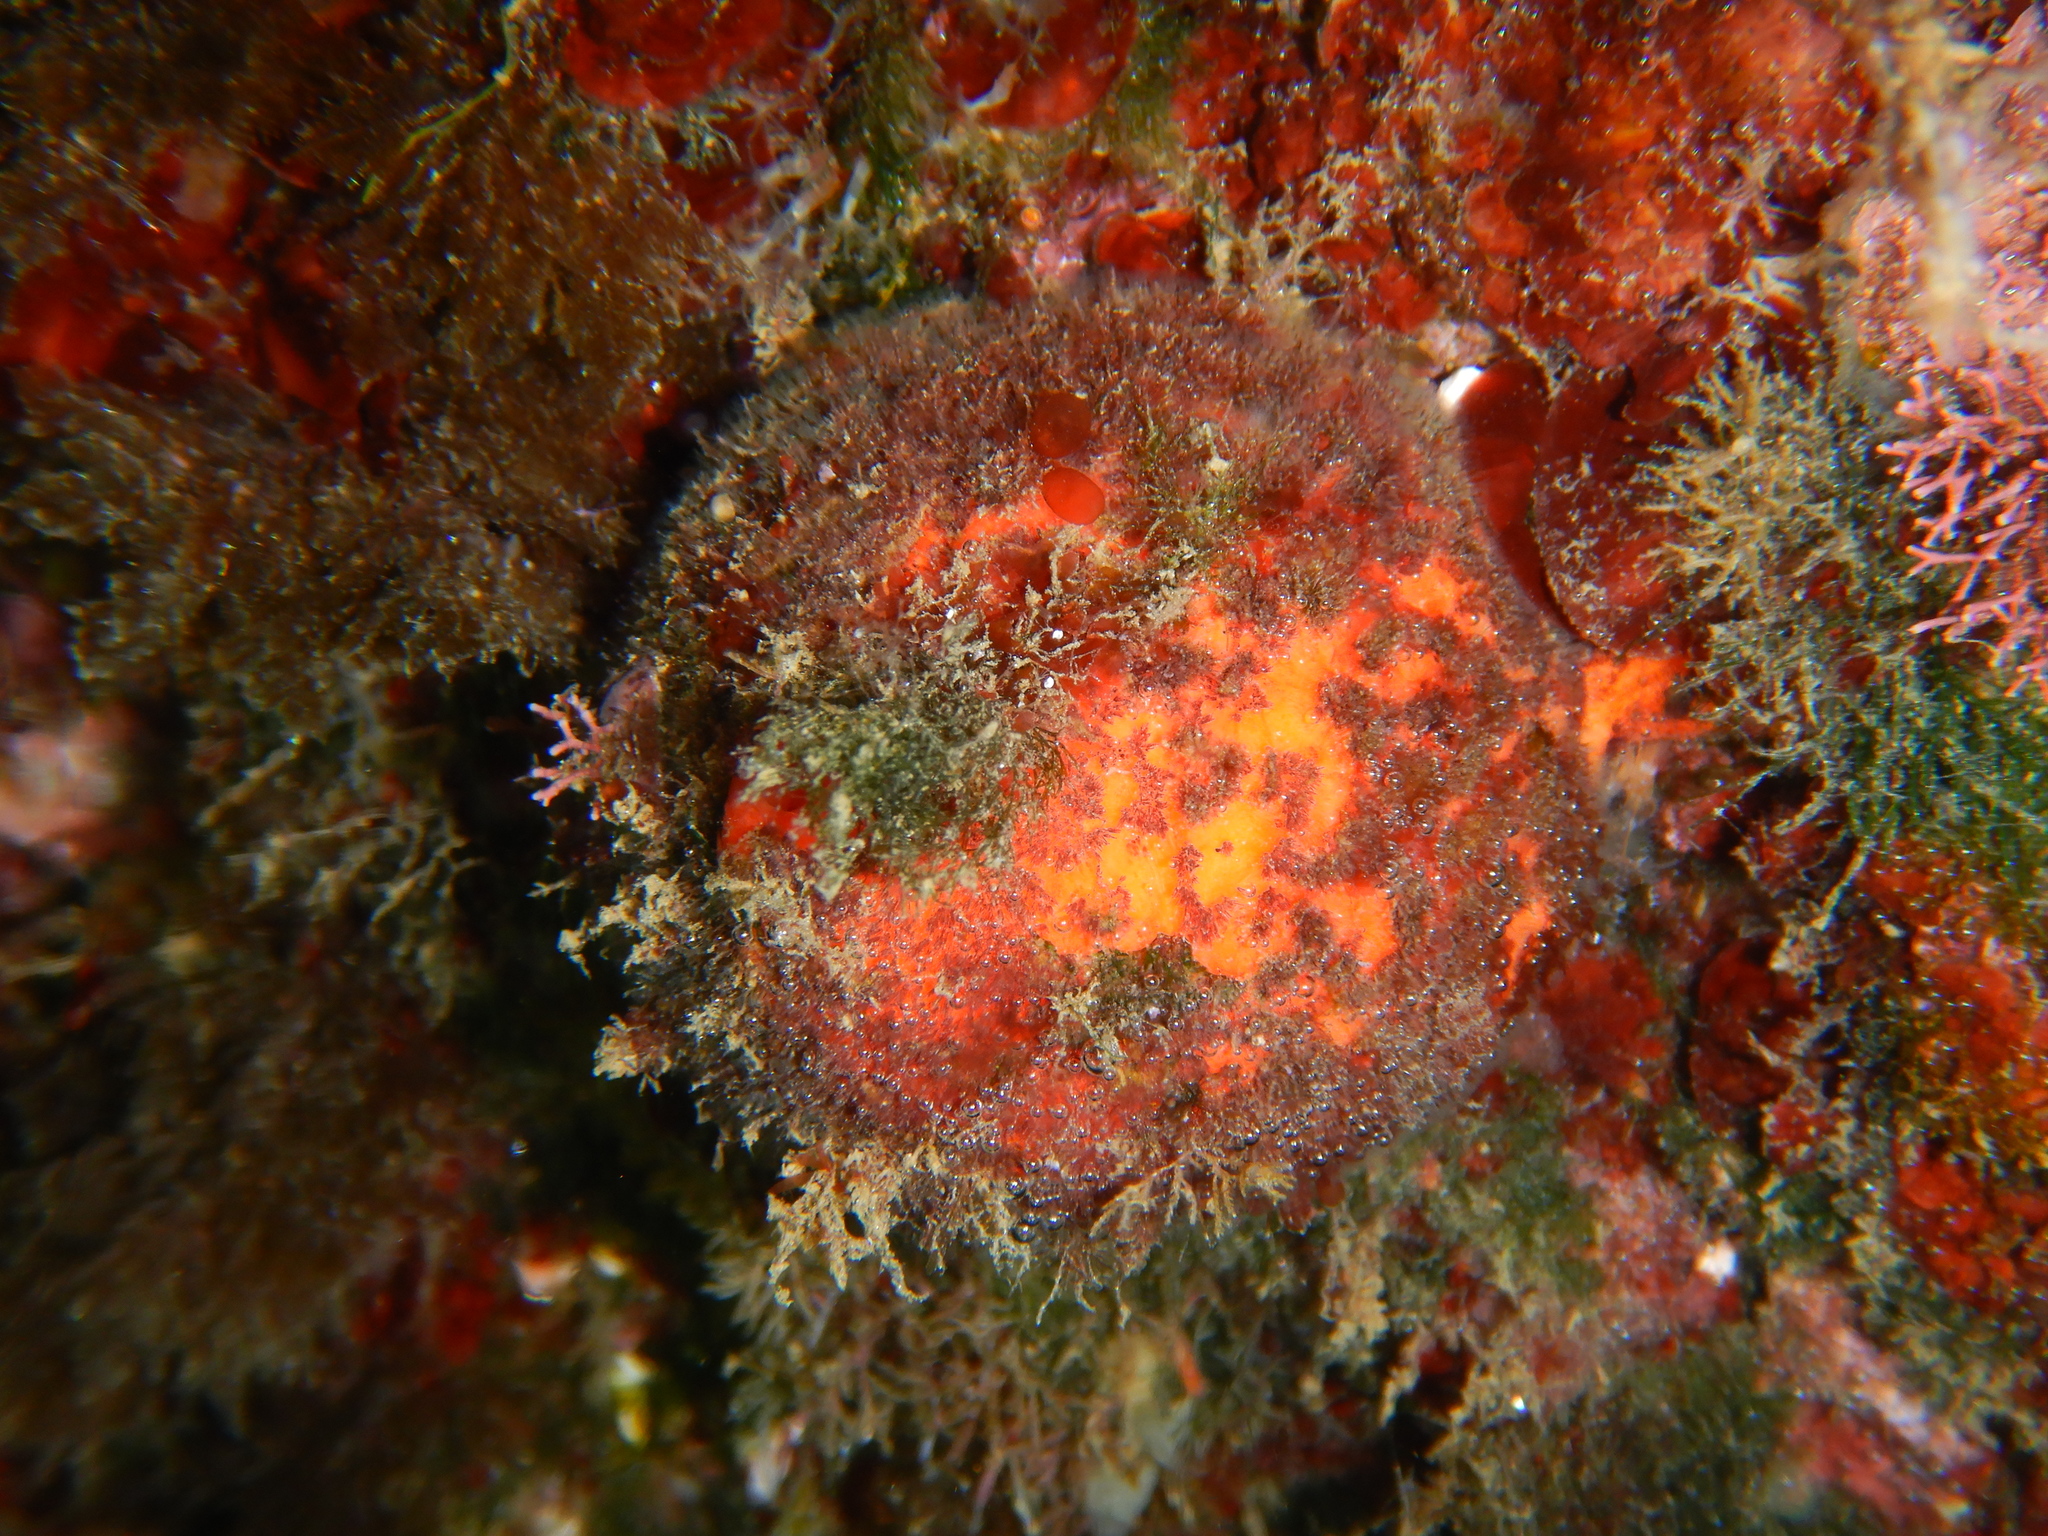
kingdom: Animalia
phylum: Porifera
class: Demospongiae
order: Tethyida
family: Tethyidae
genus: Tethya
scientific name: Tethya aurantium
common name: Golf ball sponge
